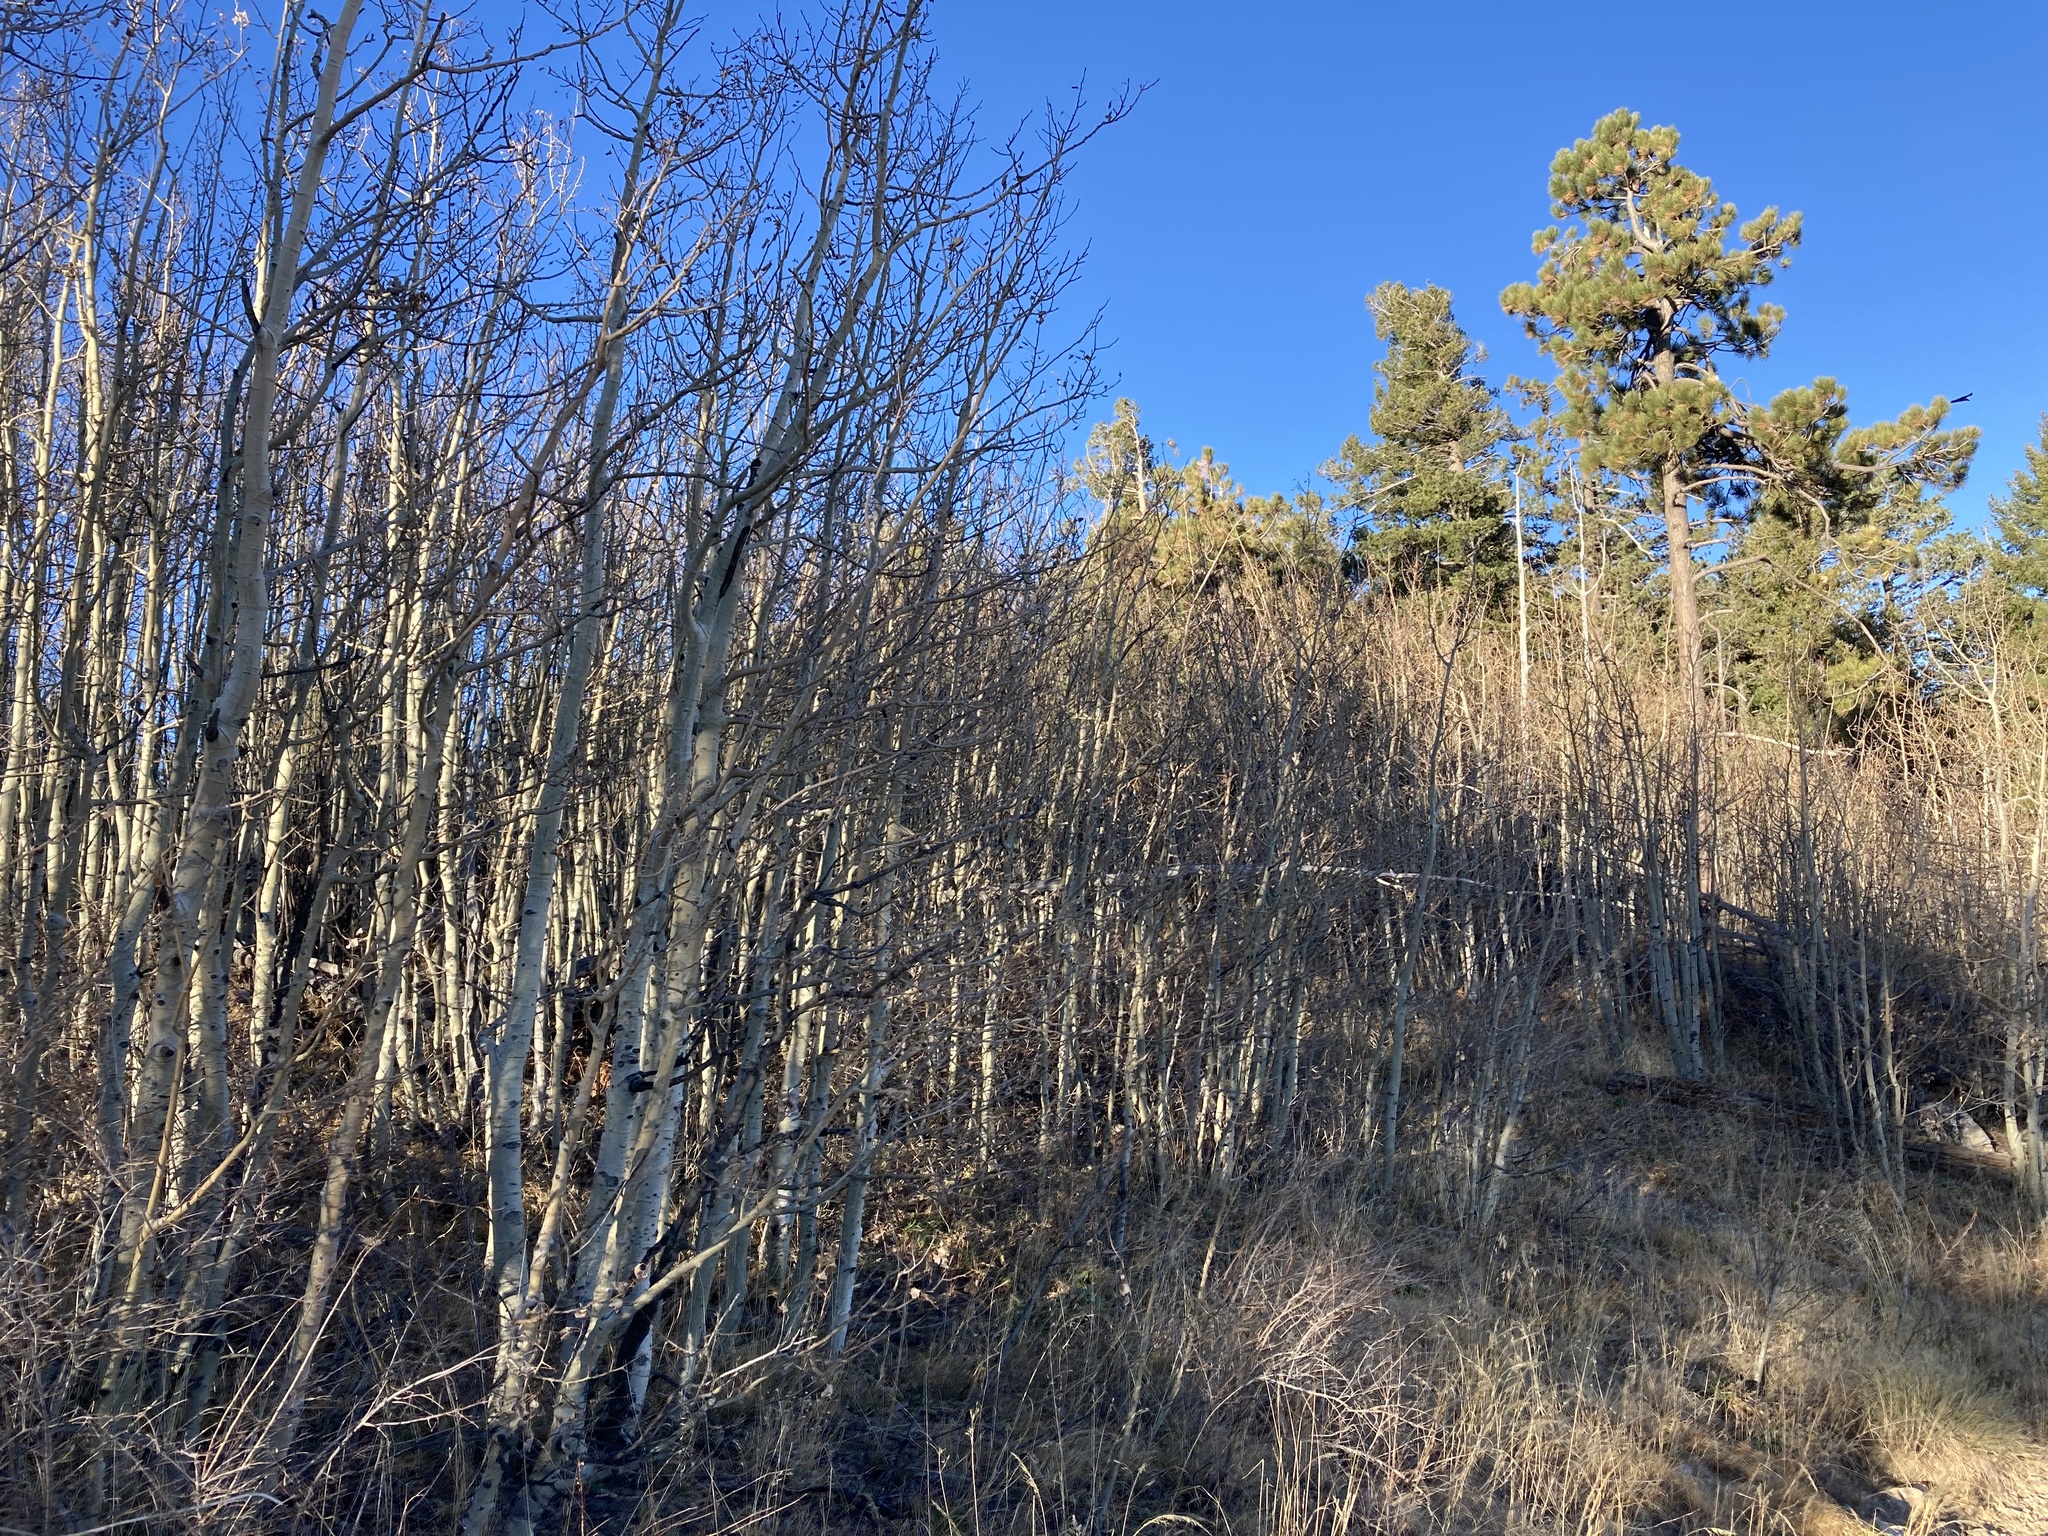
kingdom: Plantae
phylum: Tracheophyta
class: Magnoliopsida
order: Malpighiales
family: Salicaceae
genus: Populus
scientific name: Populus tremuloides
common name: Quaking aspen
